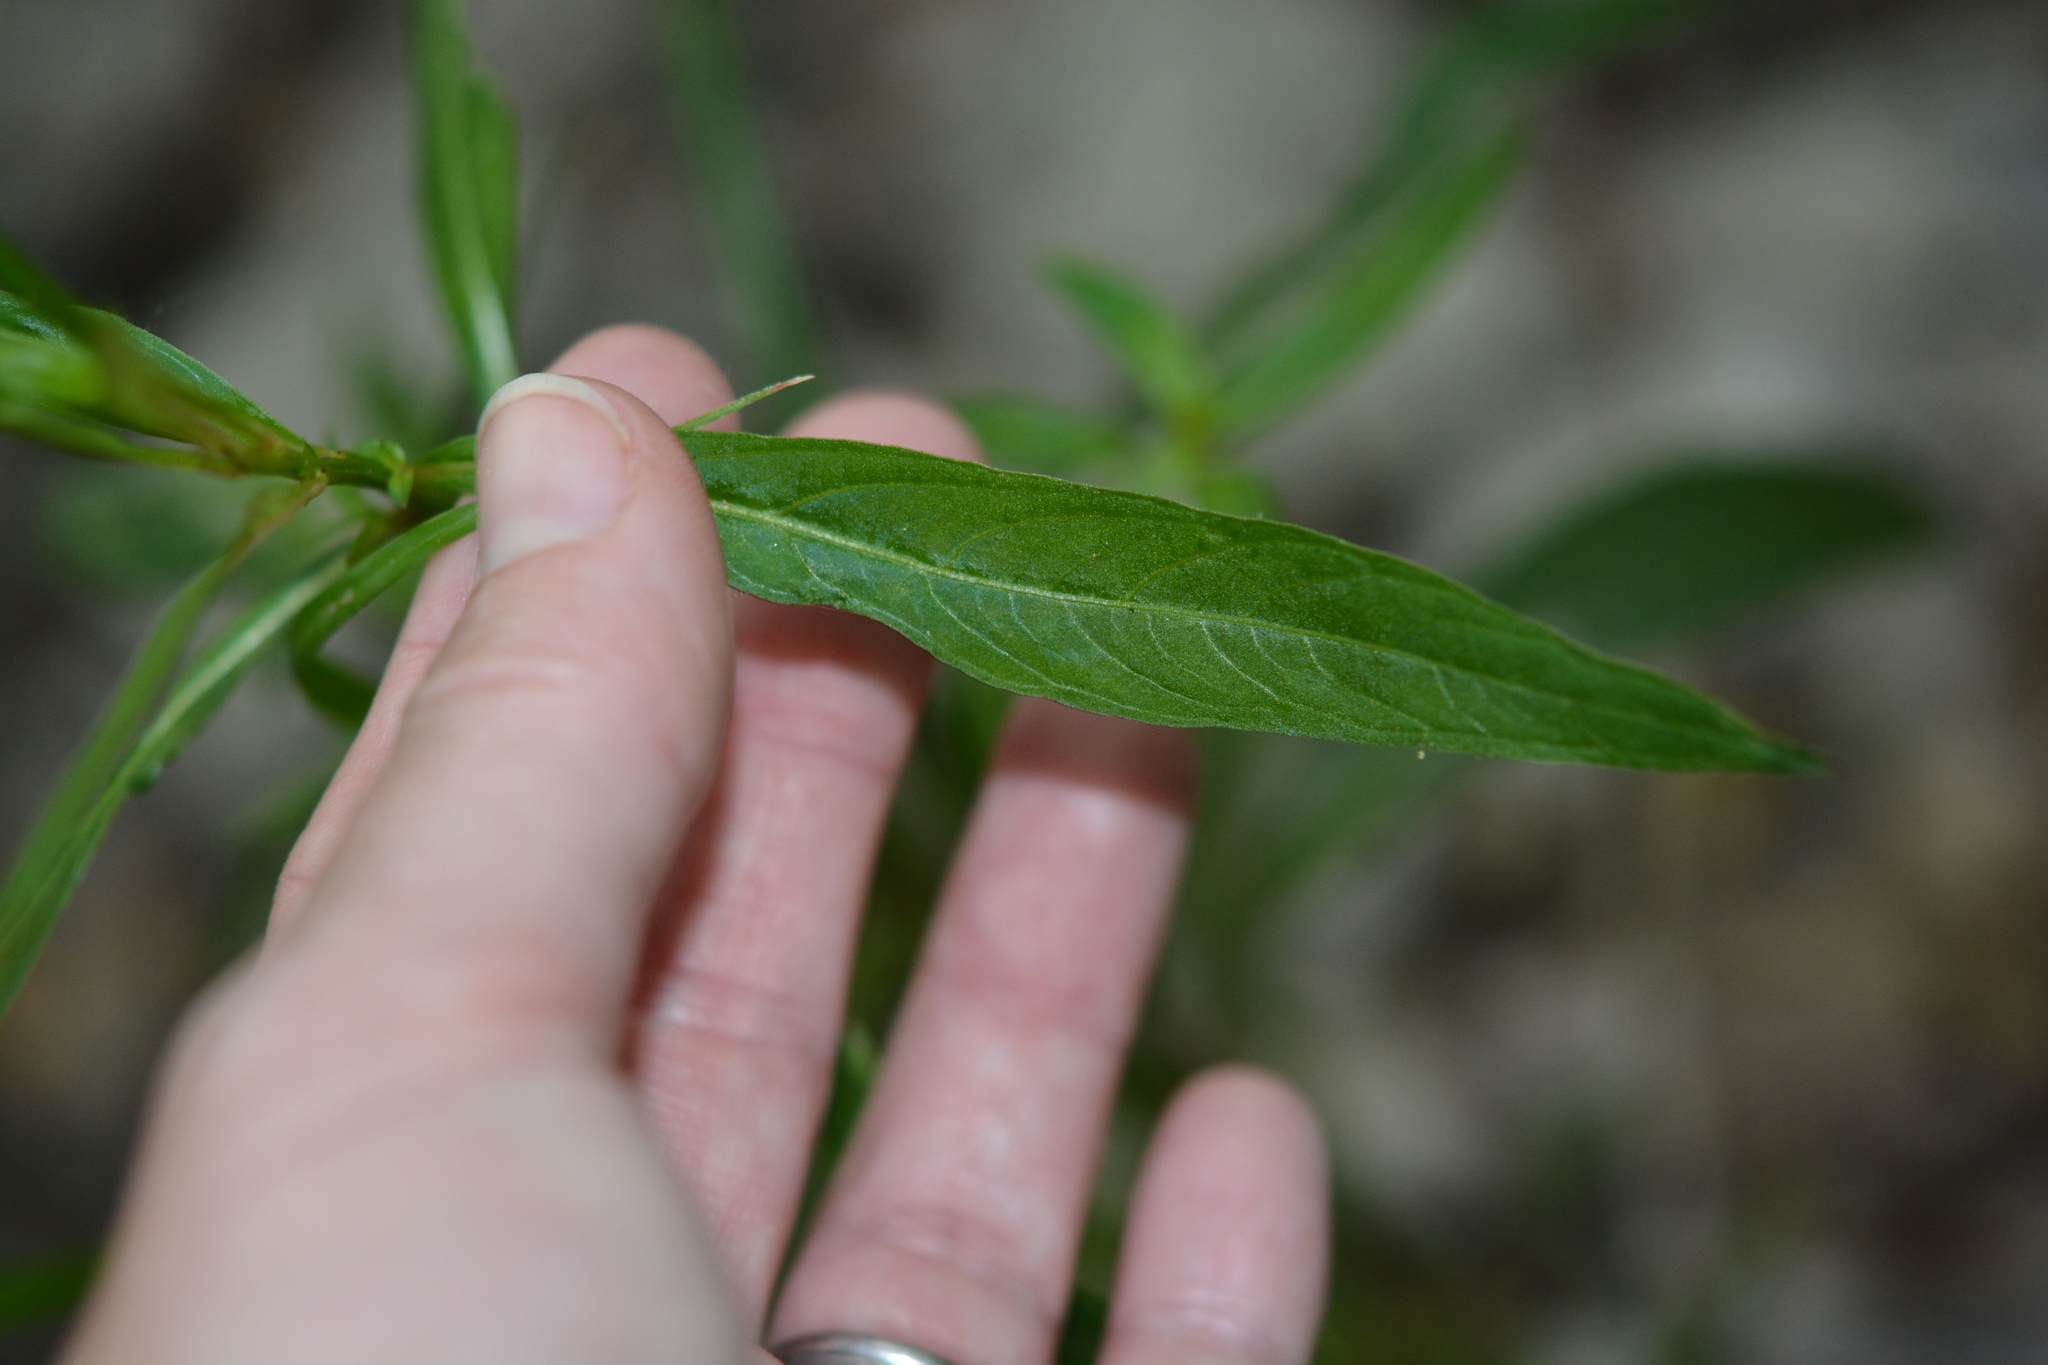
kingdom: Plantae
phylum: Tracheophyta
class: Magnoliopsida
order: Gentianales
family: Apocynaceae
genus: Asclepias
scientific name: Asclepias perennis
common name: Smooth-seed milkweed
